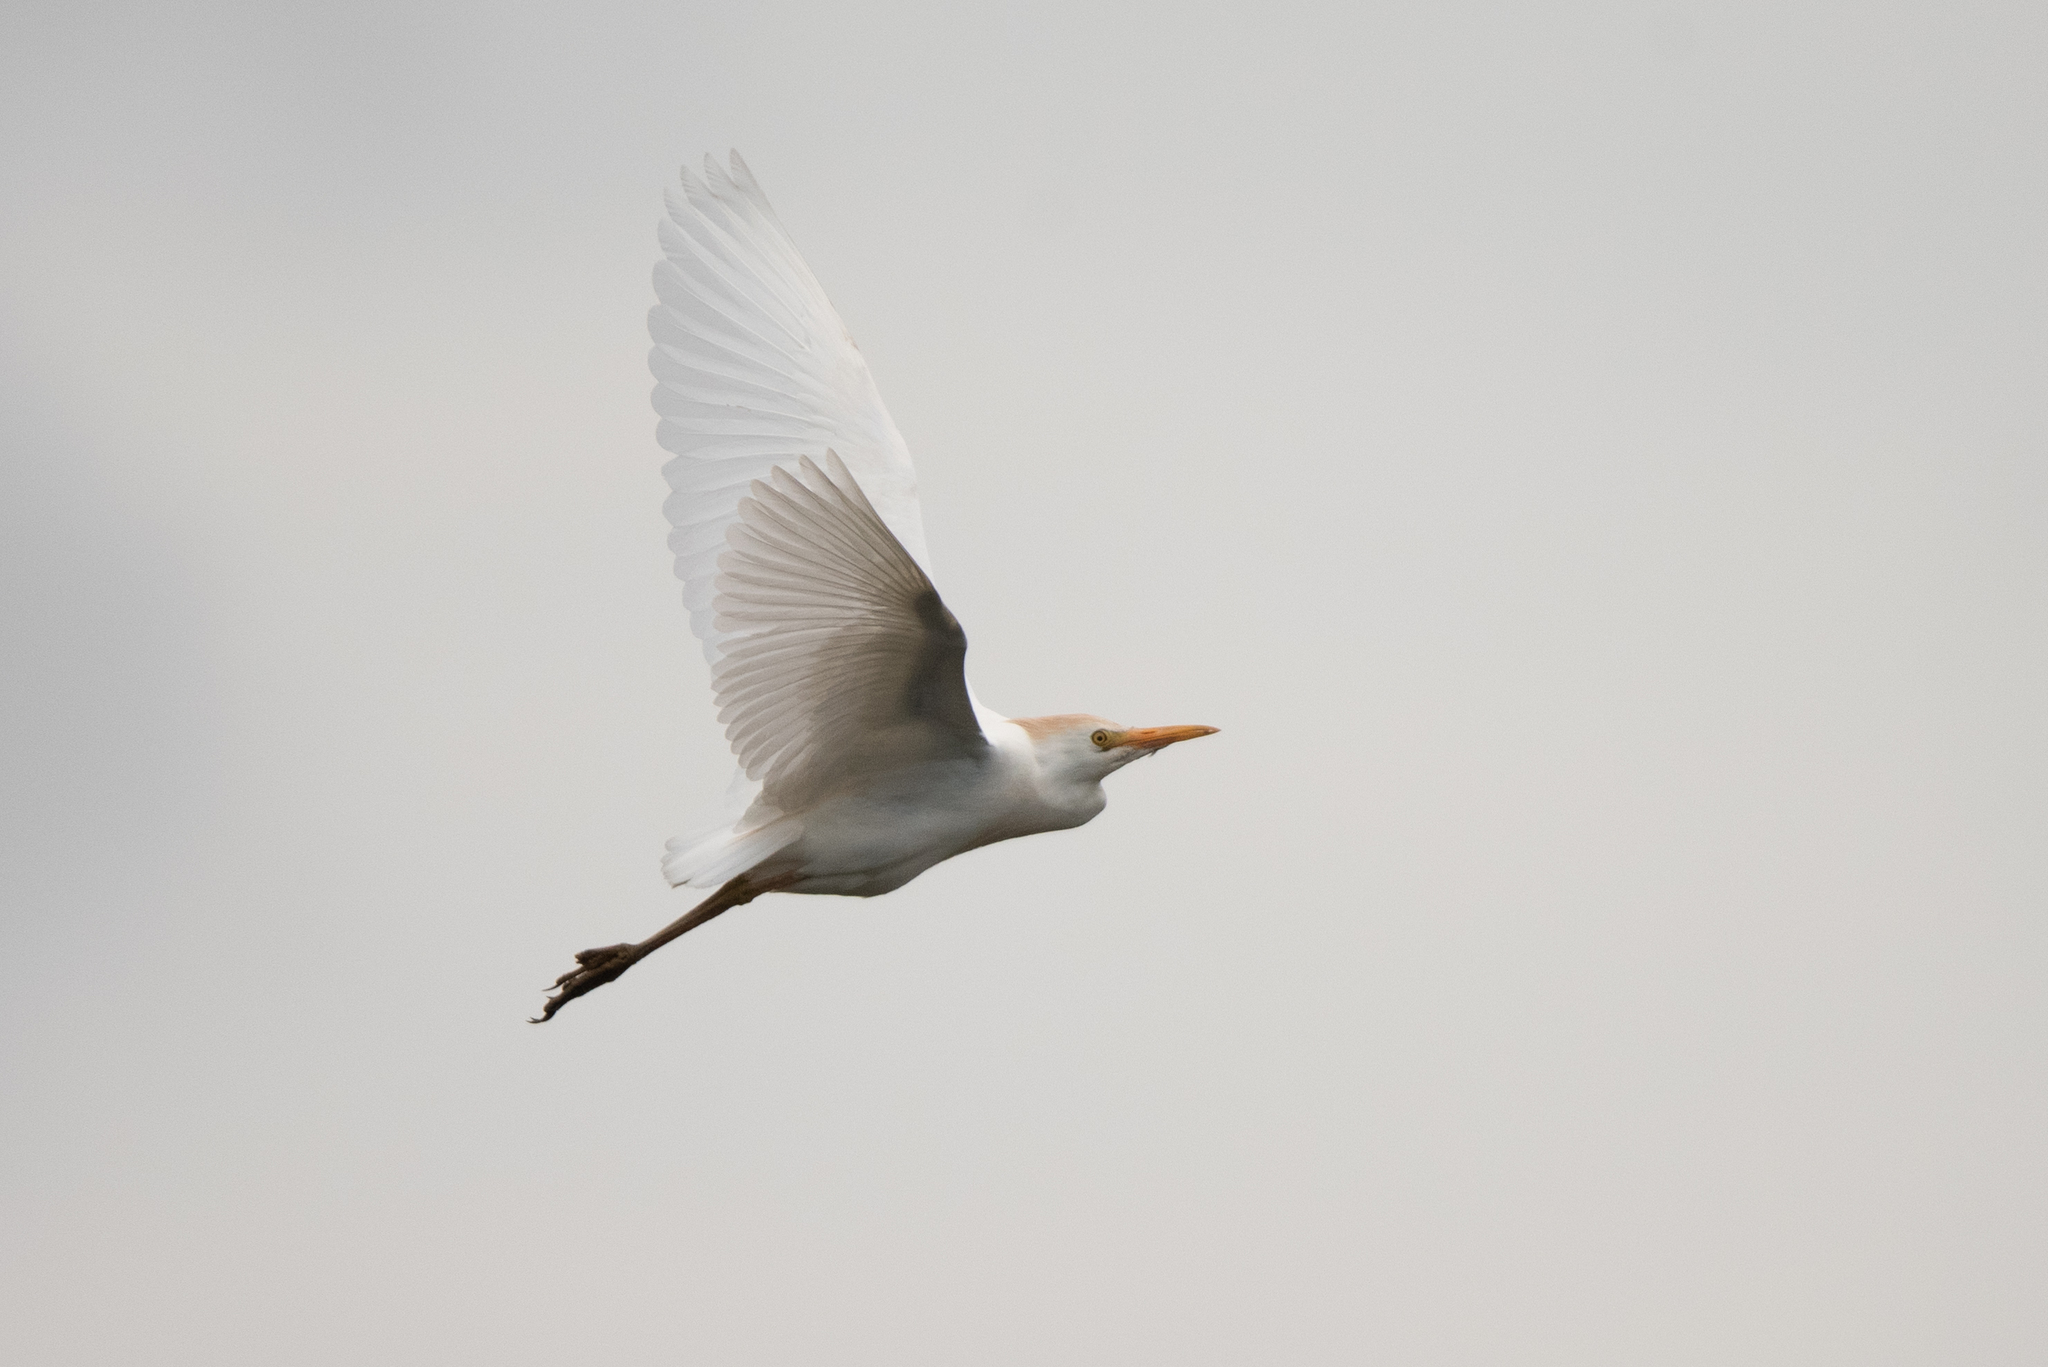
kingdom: Animalia
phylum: Chordata
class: Aves
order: Pelecaniformes
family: Ardeidae
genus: Bubulcus
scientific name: Bubulcus ibis
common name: Cattle egret
